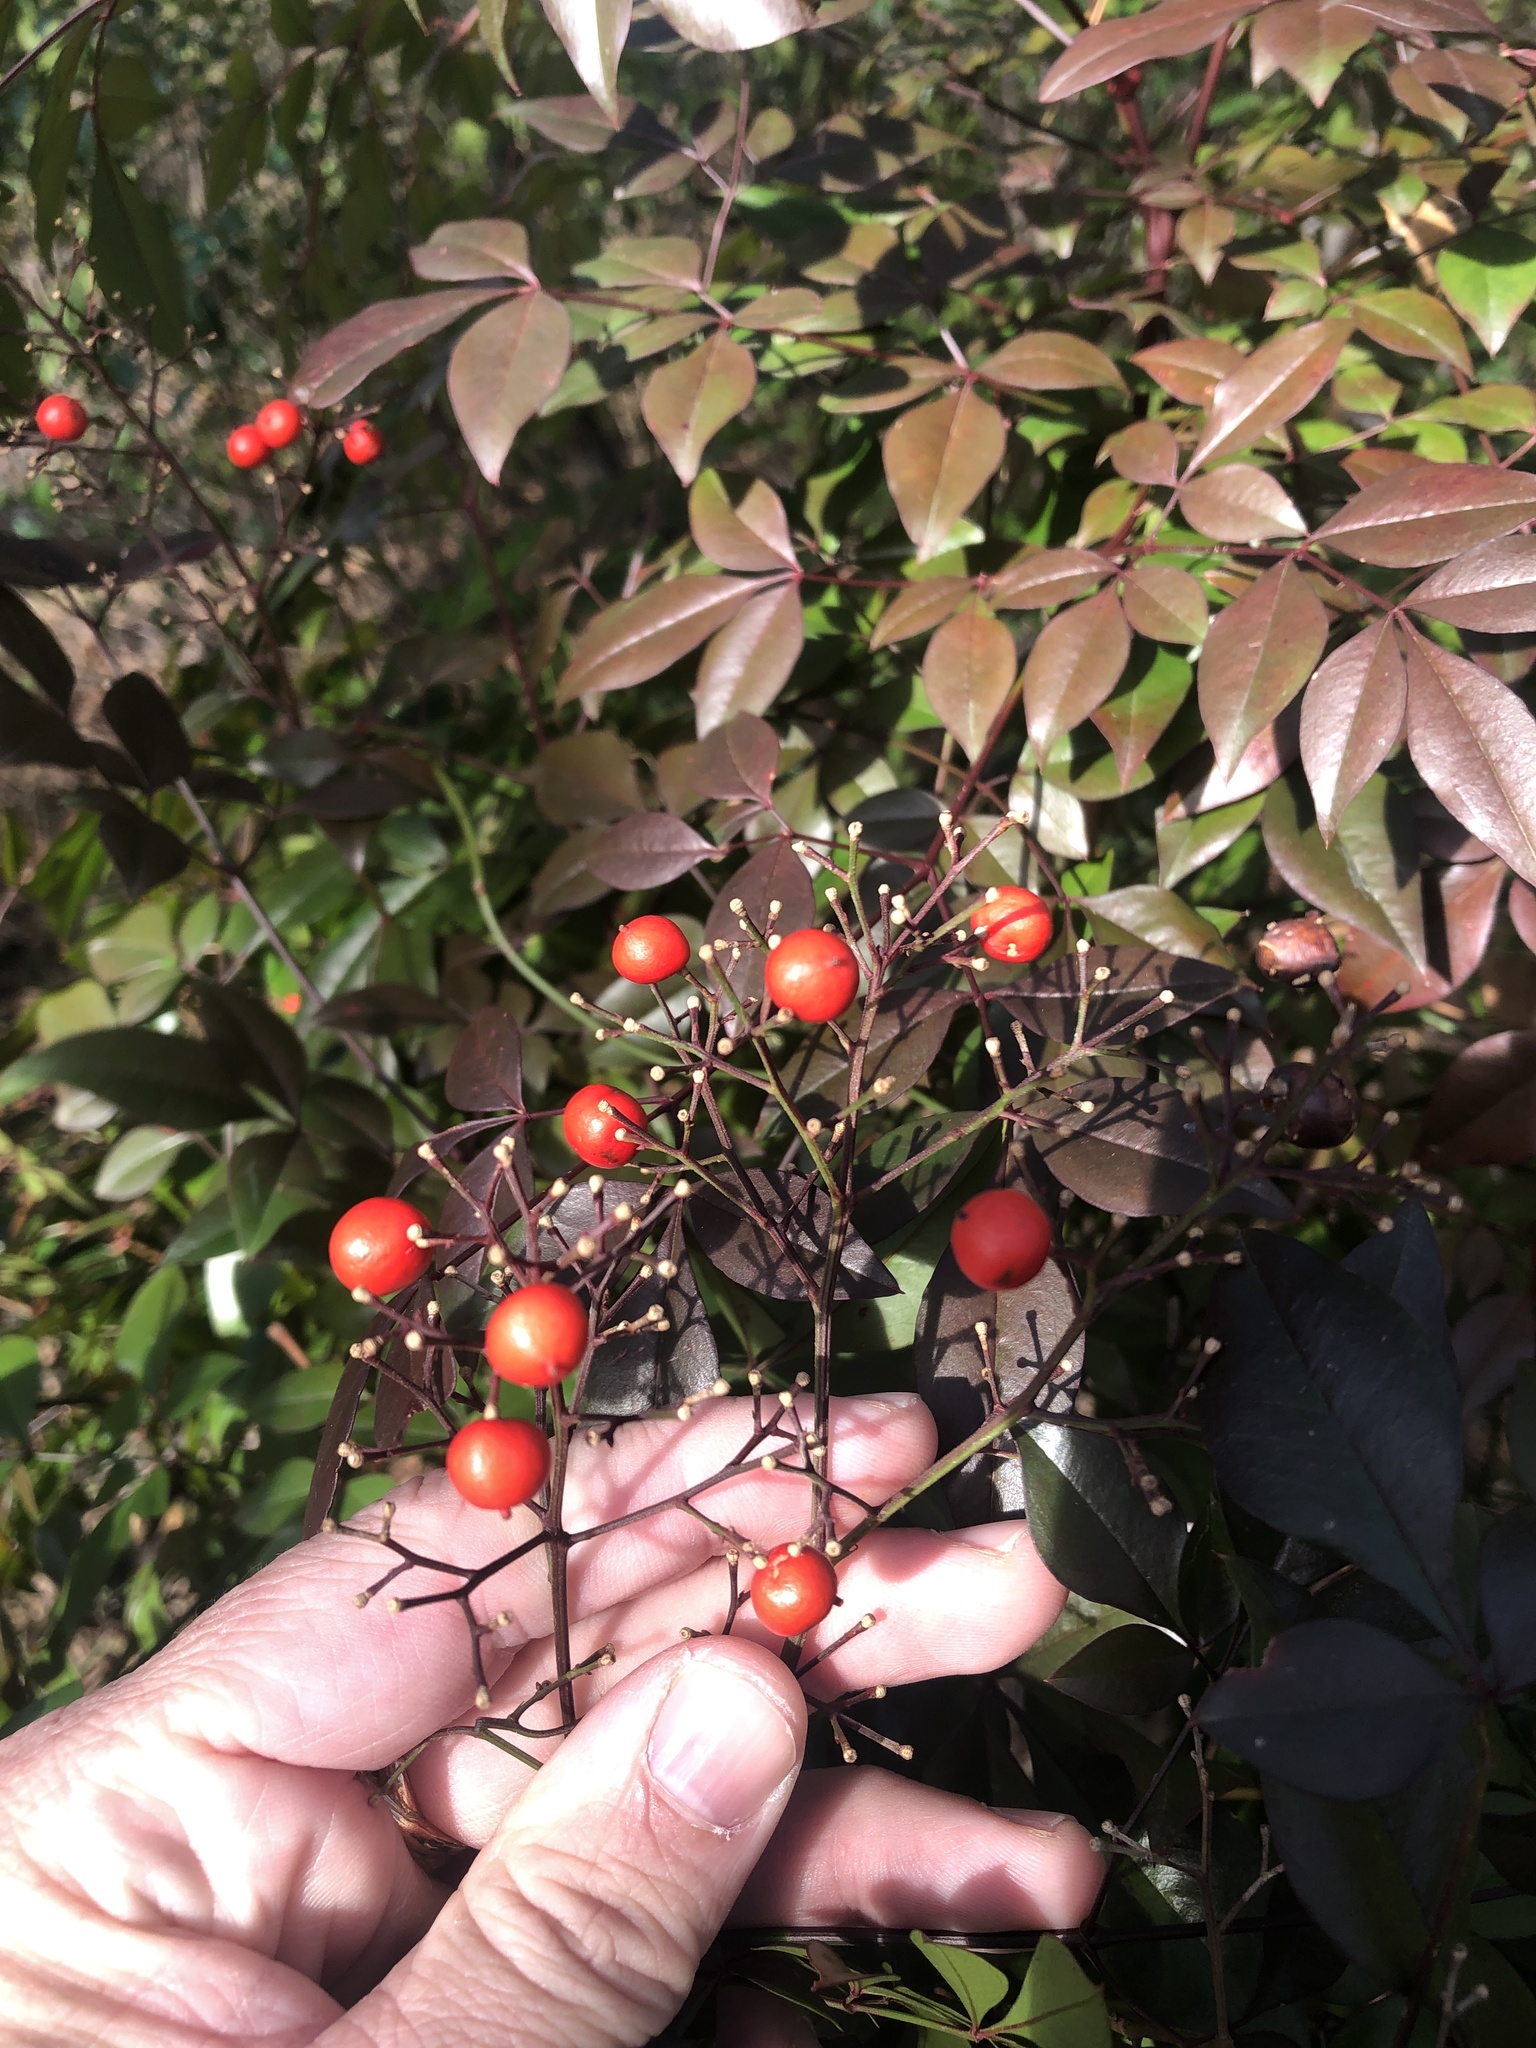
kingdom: Plantae
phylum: Tracheophyta
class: Magnoliopsida
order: Ranunculales
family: Berberidaceae
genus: Nandina
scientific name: Nandina domestica
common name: Sacred bamboo
